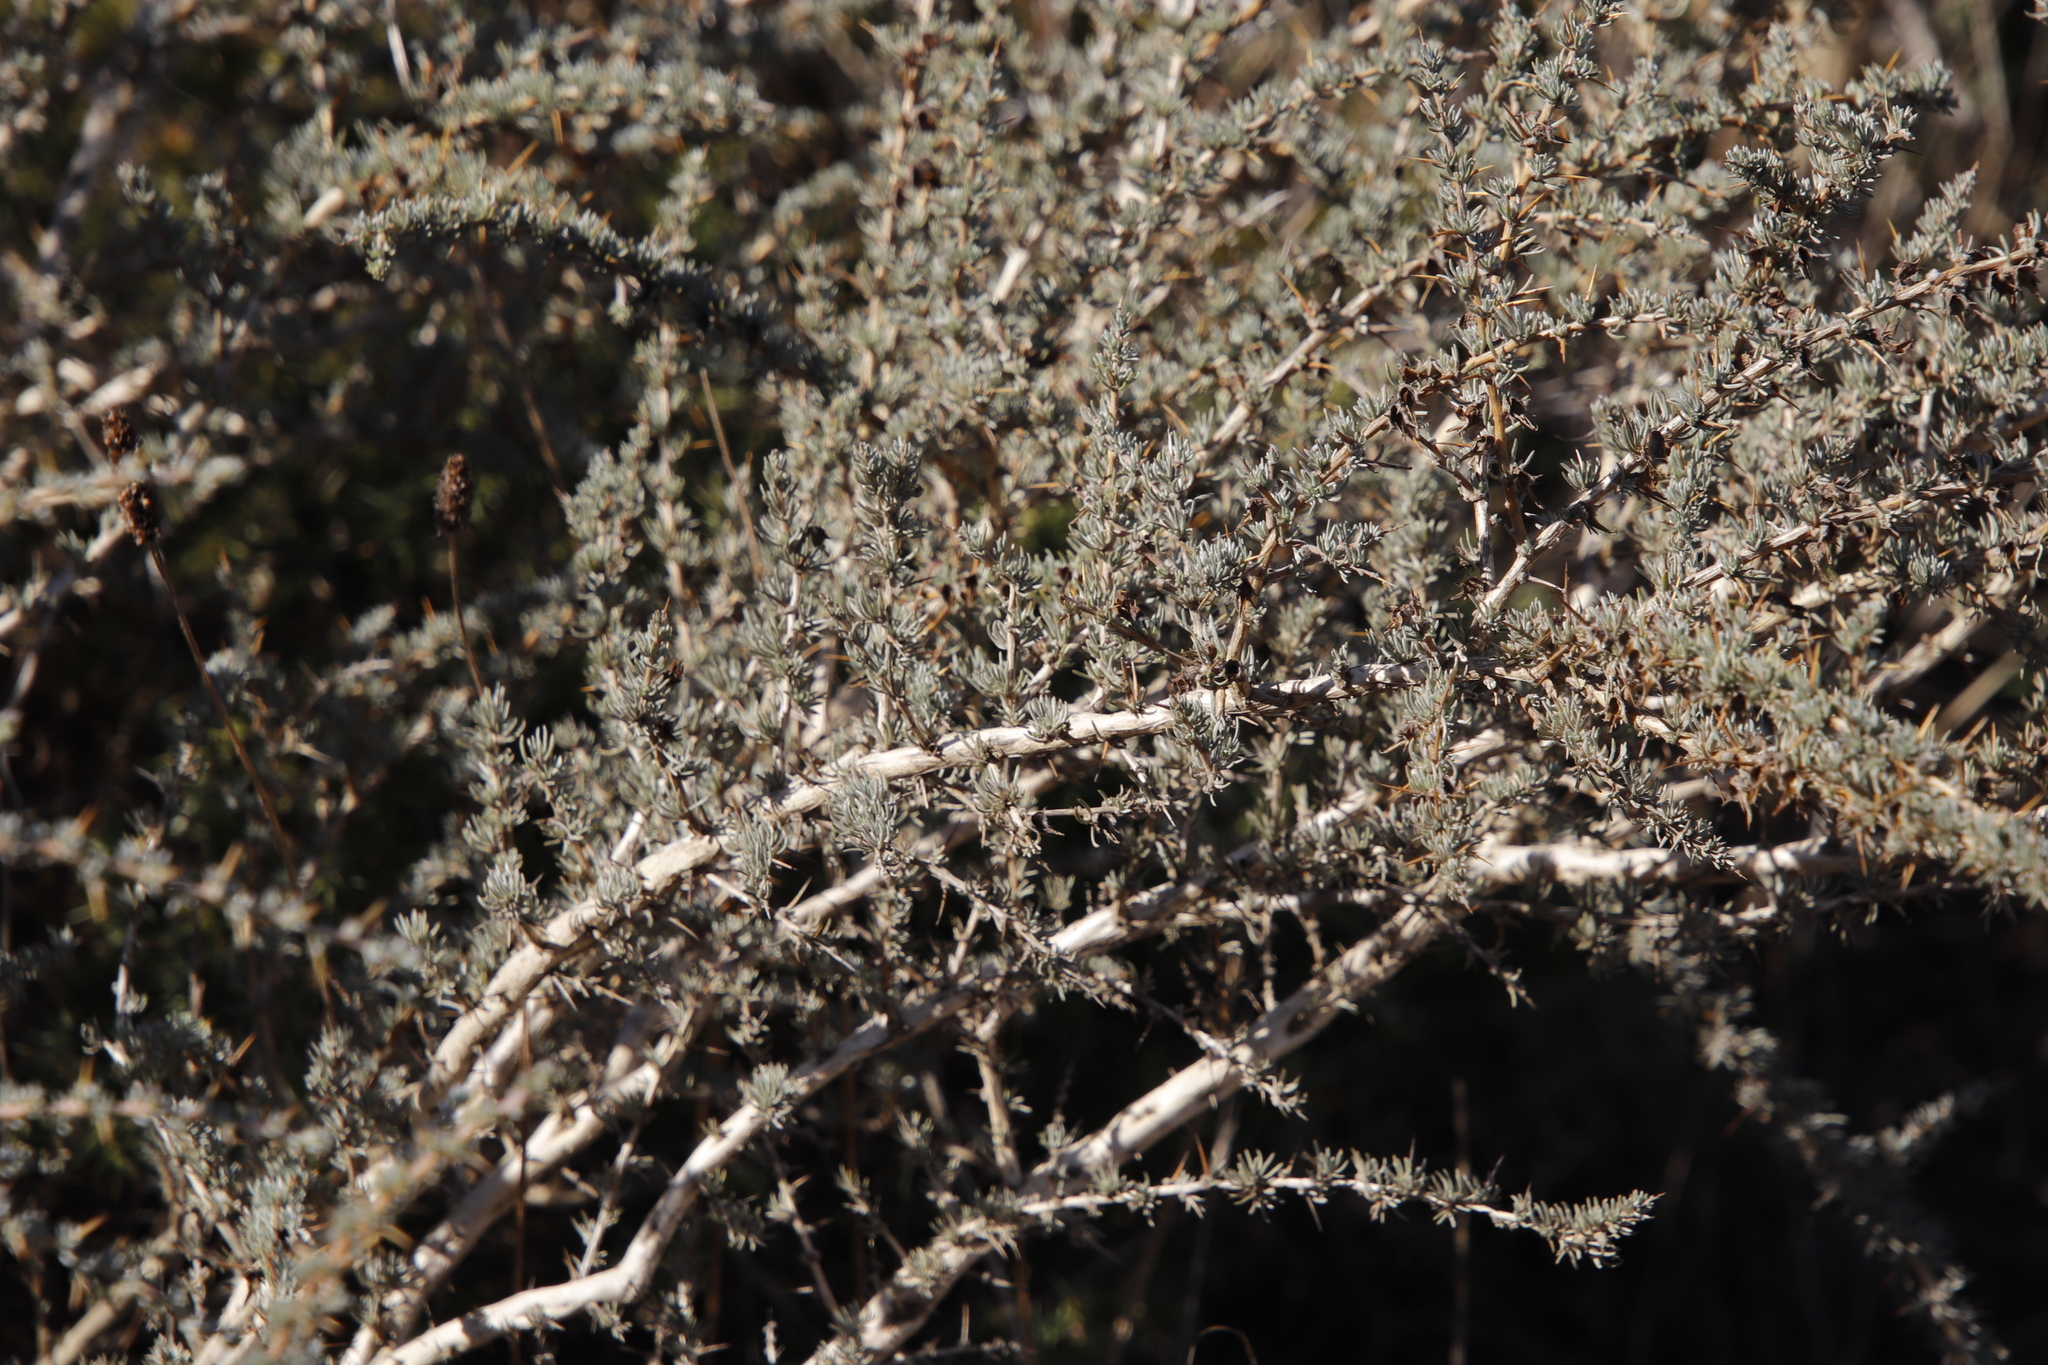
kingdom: Plantae
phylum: Tracheophyta
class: Magnoliopsida
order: Fabales
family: Fabaceae
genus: Aspalathus
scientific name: Aspalathus acanthophylla
